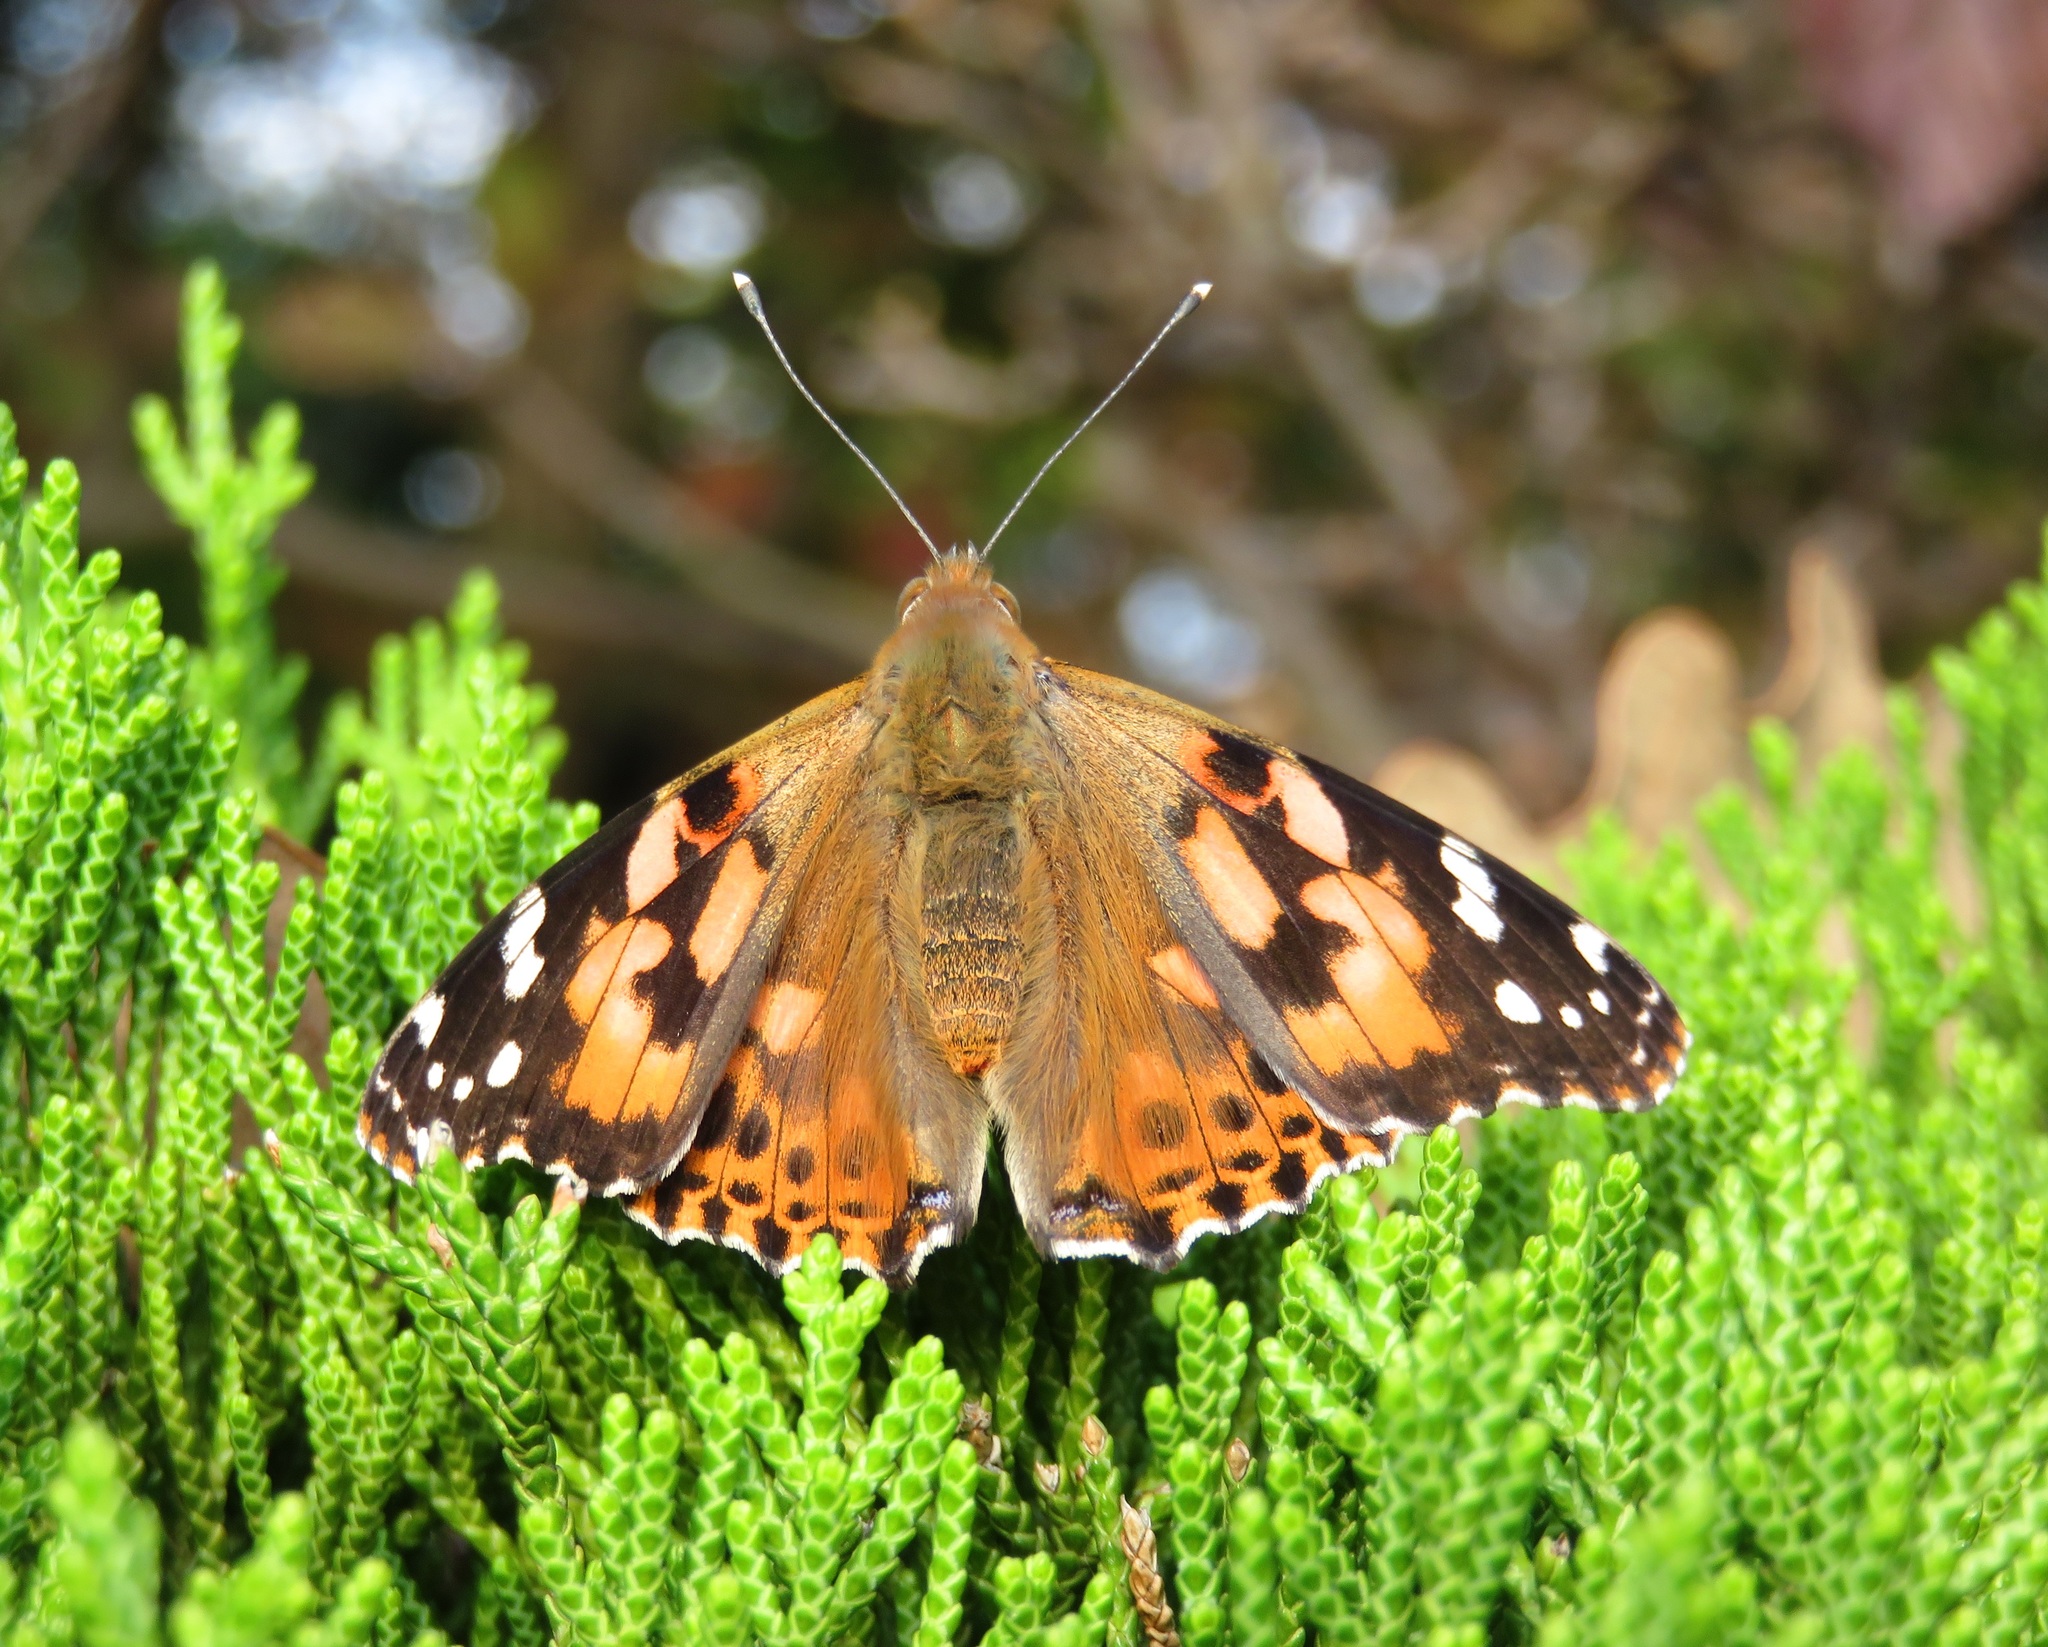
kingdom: Animalia
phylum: Arthropoda
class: Insecta
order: Lepidoptera
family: Nymphalidae
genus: Vanessa
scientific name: Vanessa cardui
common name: Painted lady
